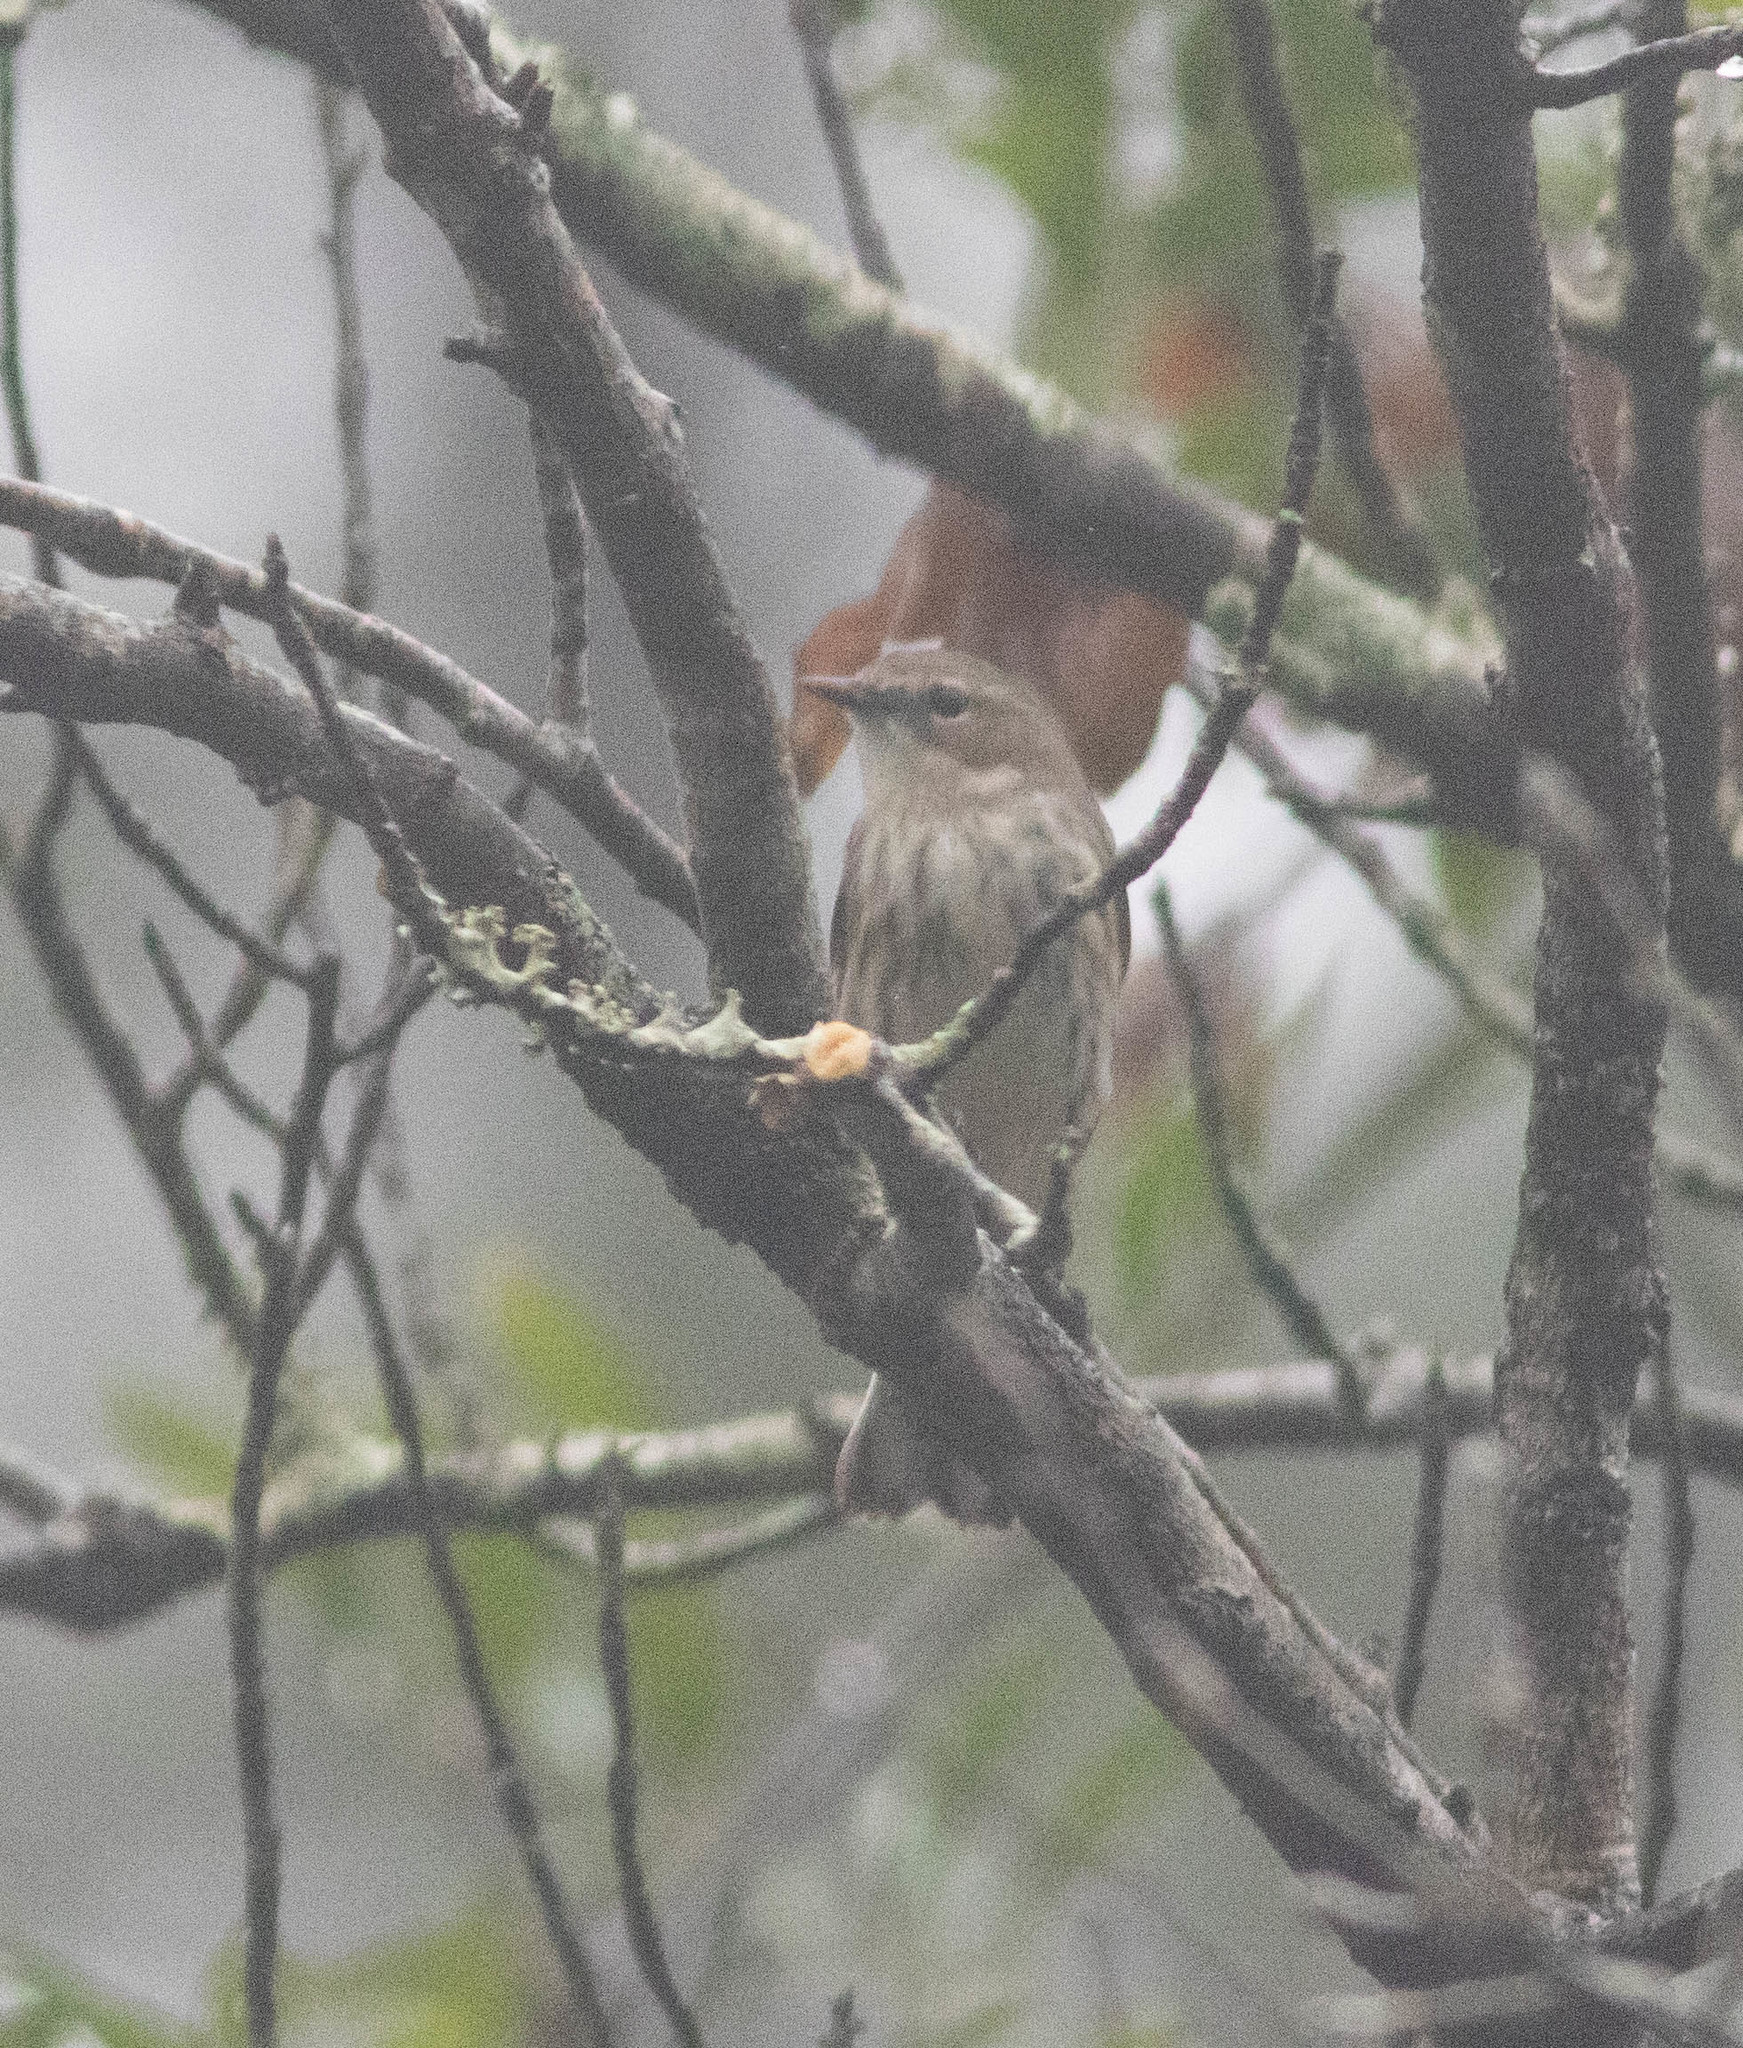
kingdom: Animalia
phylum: Chordata
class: Aves
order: Passeriformes
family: Parulidae
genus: Setophaga
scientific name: Setophaga coronata
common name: Myrtle warbler
